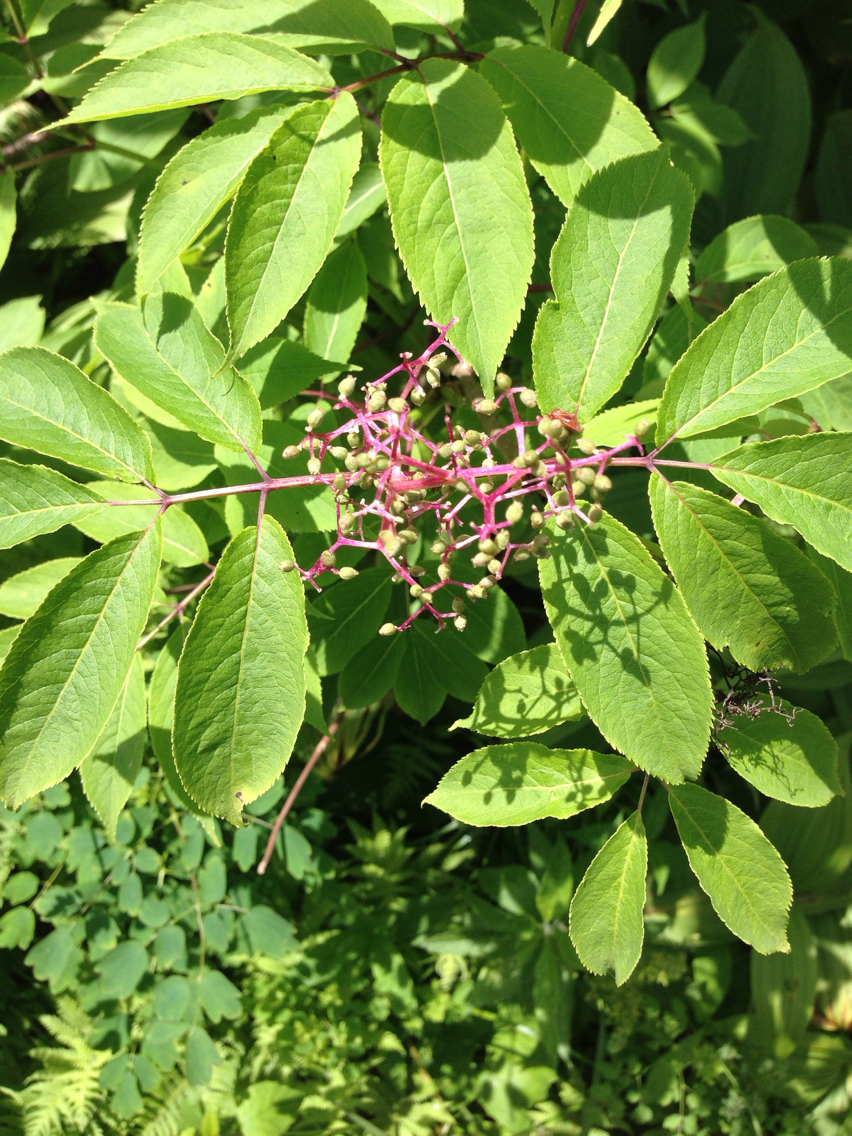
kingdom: Plantae
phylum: Tracheophyta
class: Magnoliopsida
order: Dipsacales
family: Viburnaceae
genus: Sambucus
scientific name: Sambucus racemosa
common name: Red-berried elder
